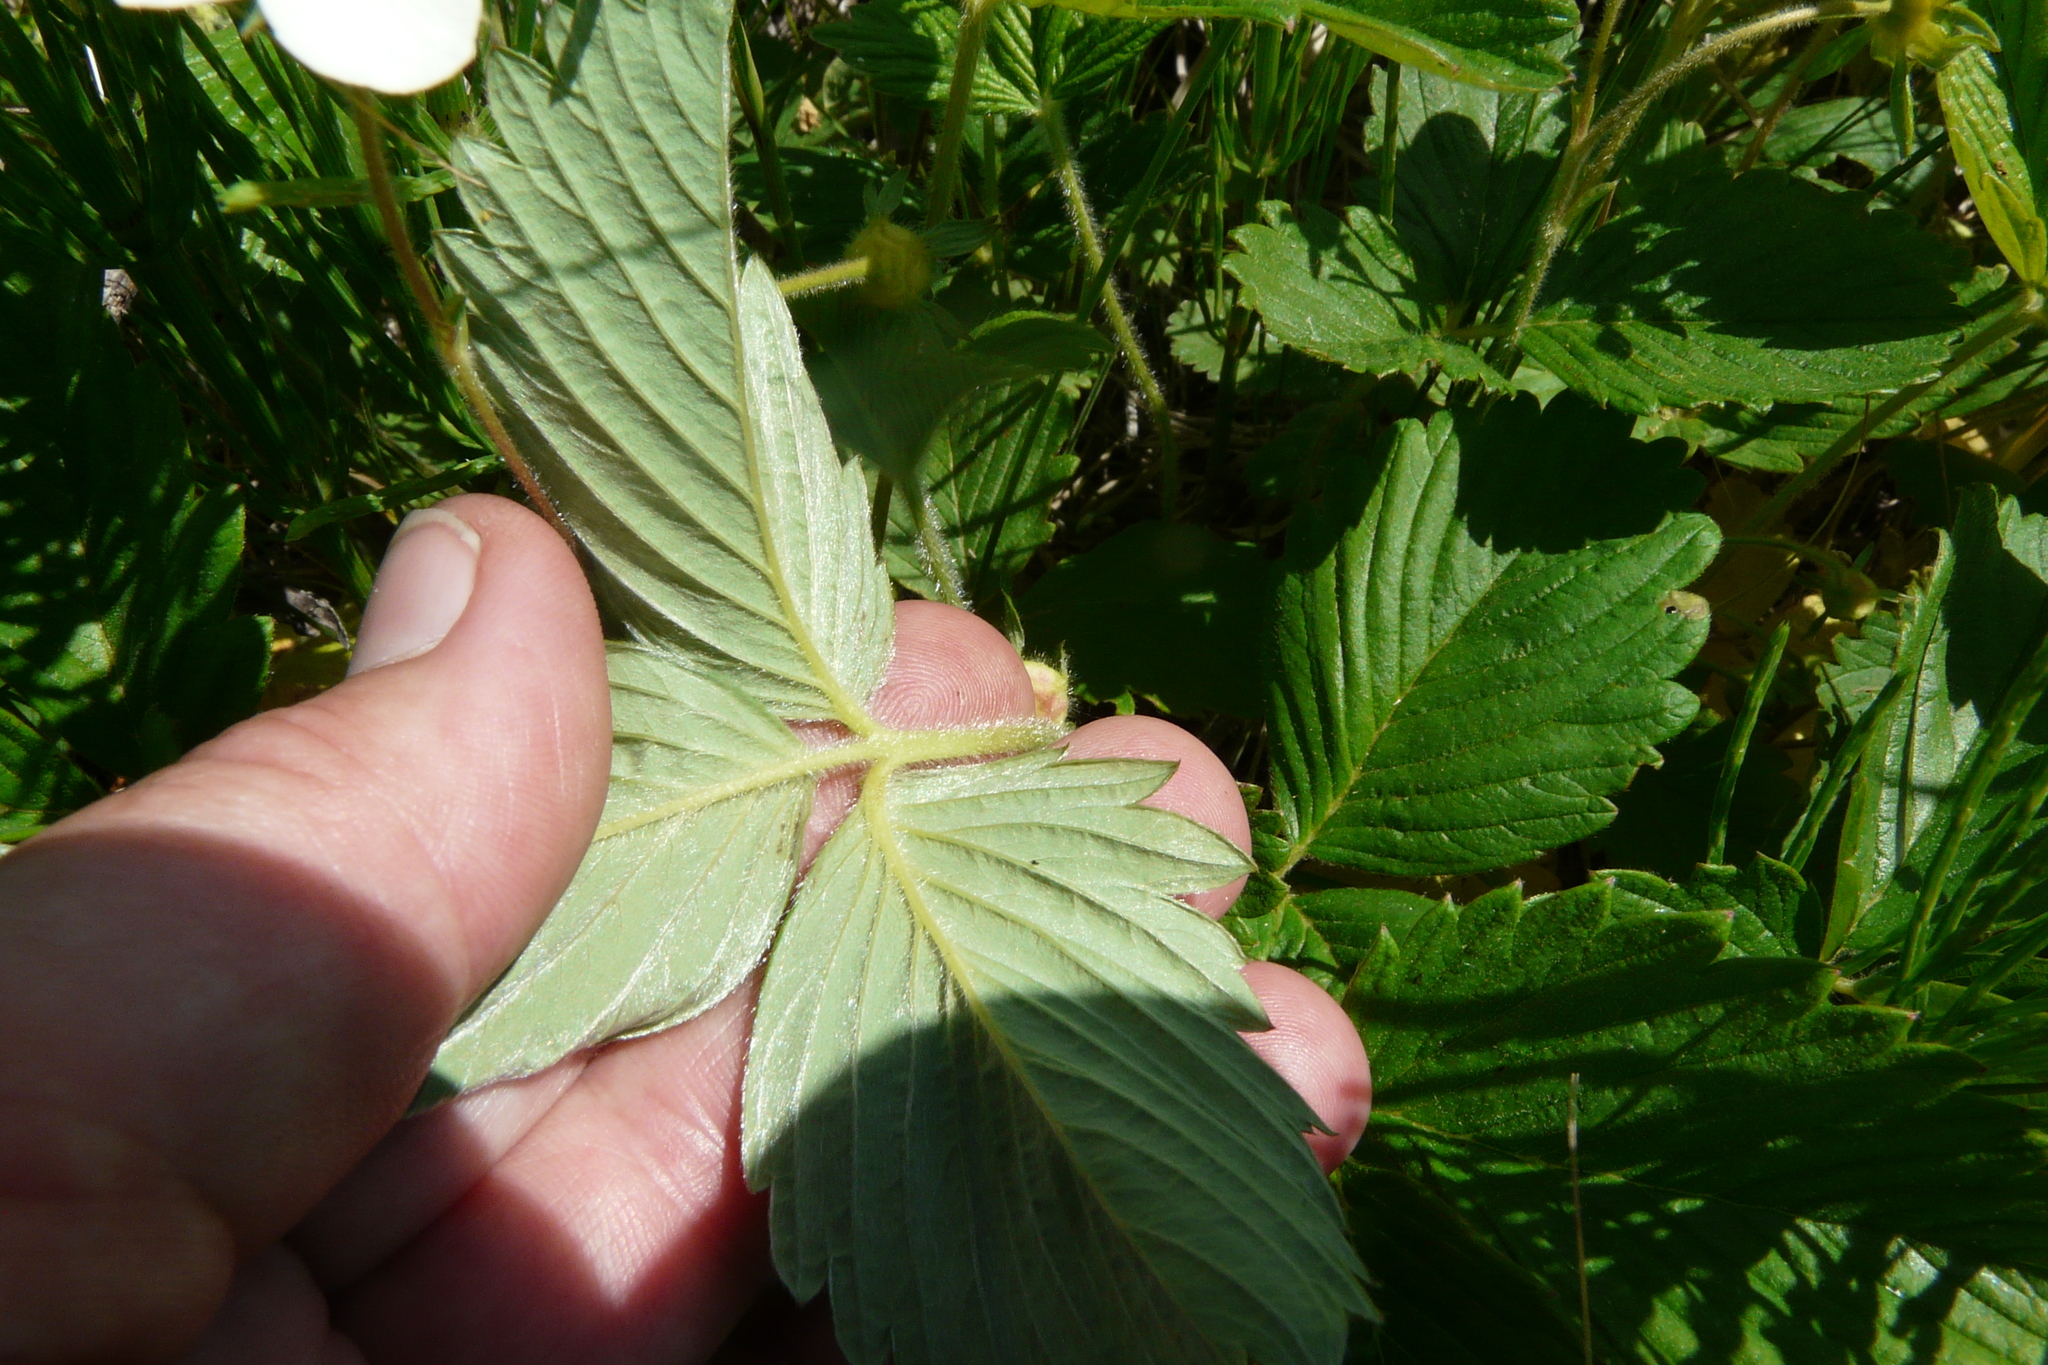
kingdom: Plantae
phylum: Tracheophyta
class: Magnoliopsida
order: Rosales
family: Rosaceae
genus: Fragaria
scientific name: Fragaria viridis
